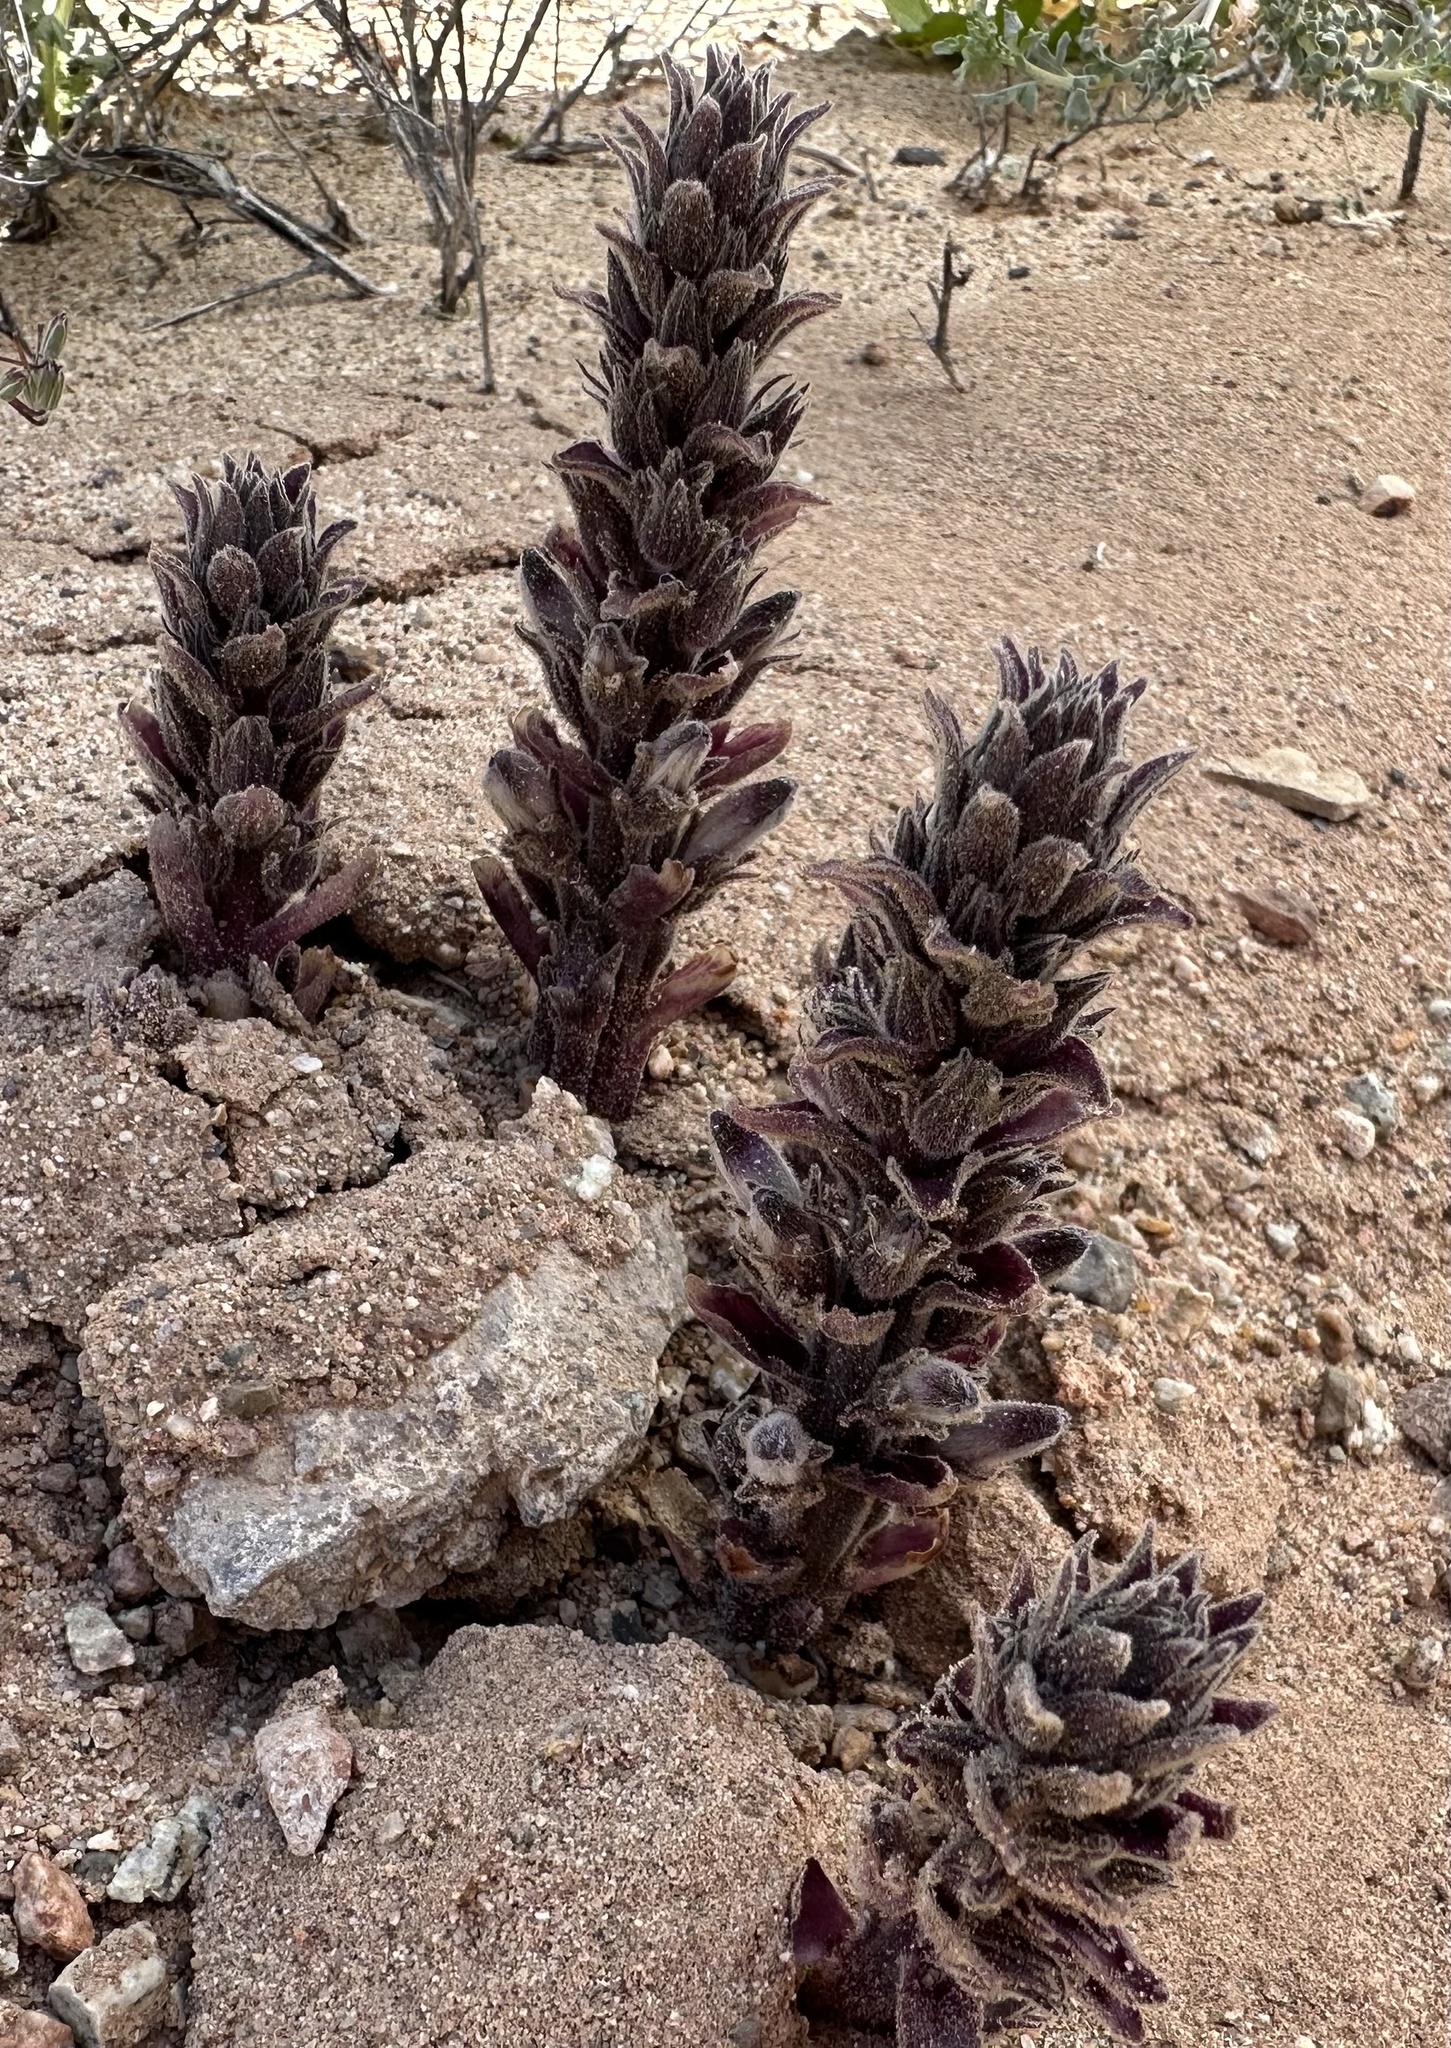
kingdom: Plantae
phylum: Tracheophyta
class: Magnoliopsida
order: Lamiales
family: Orobanchaceae
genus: Aphyllon
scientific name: Aphyllon cooperi
